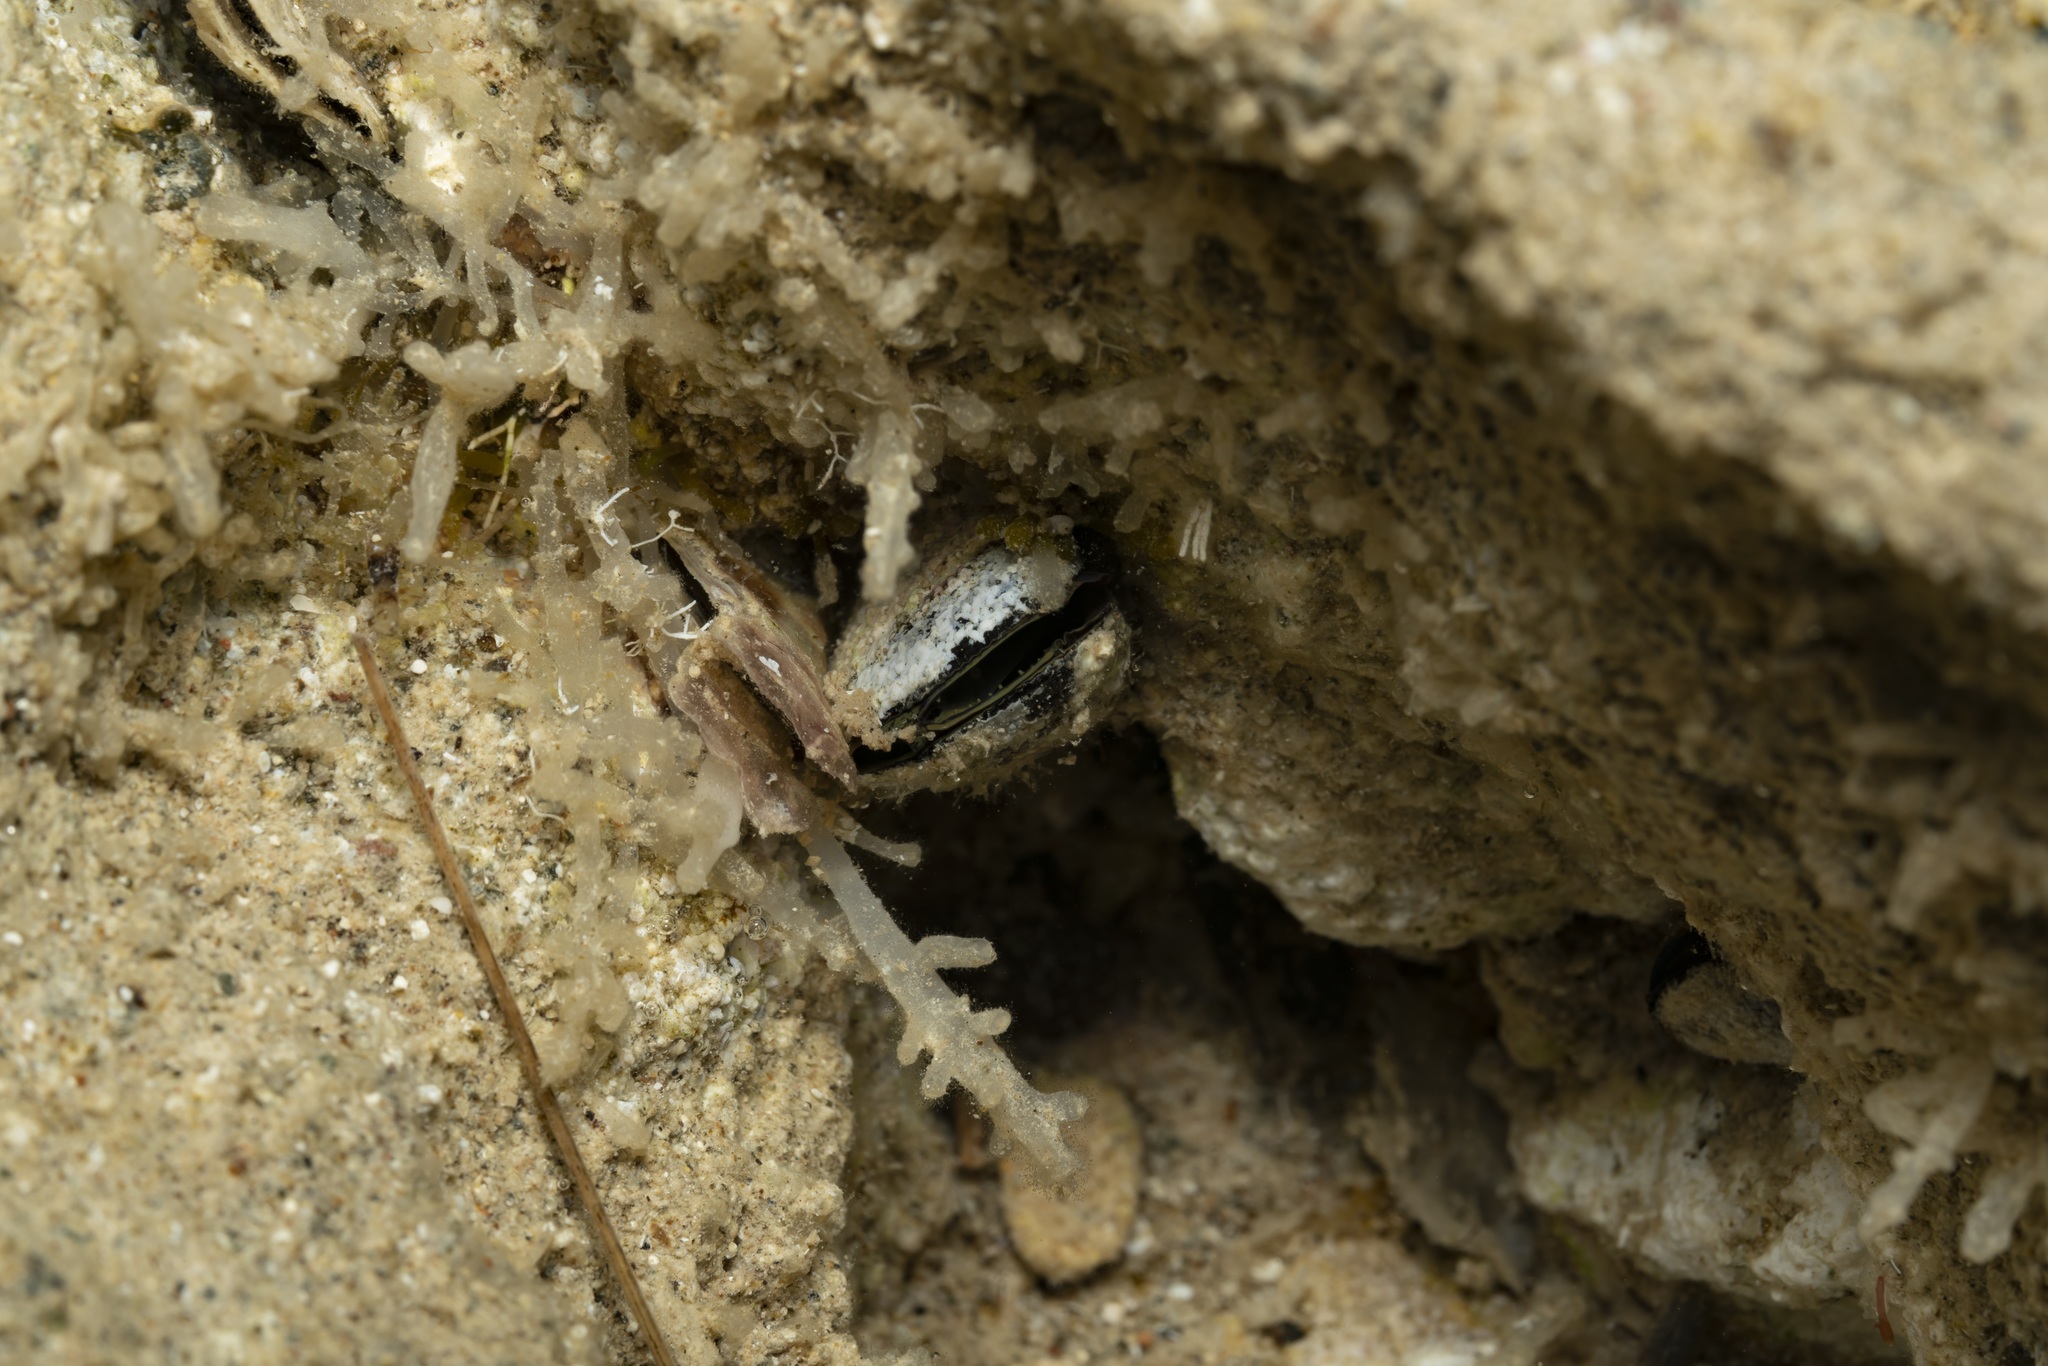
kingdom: Animalia
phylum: Mollusca
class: Bivalvia
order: Mytilida
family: Mytilidae
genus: Lithophaga
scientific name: Lithophaga lithophaga
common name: European date mussel
